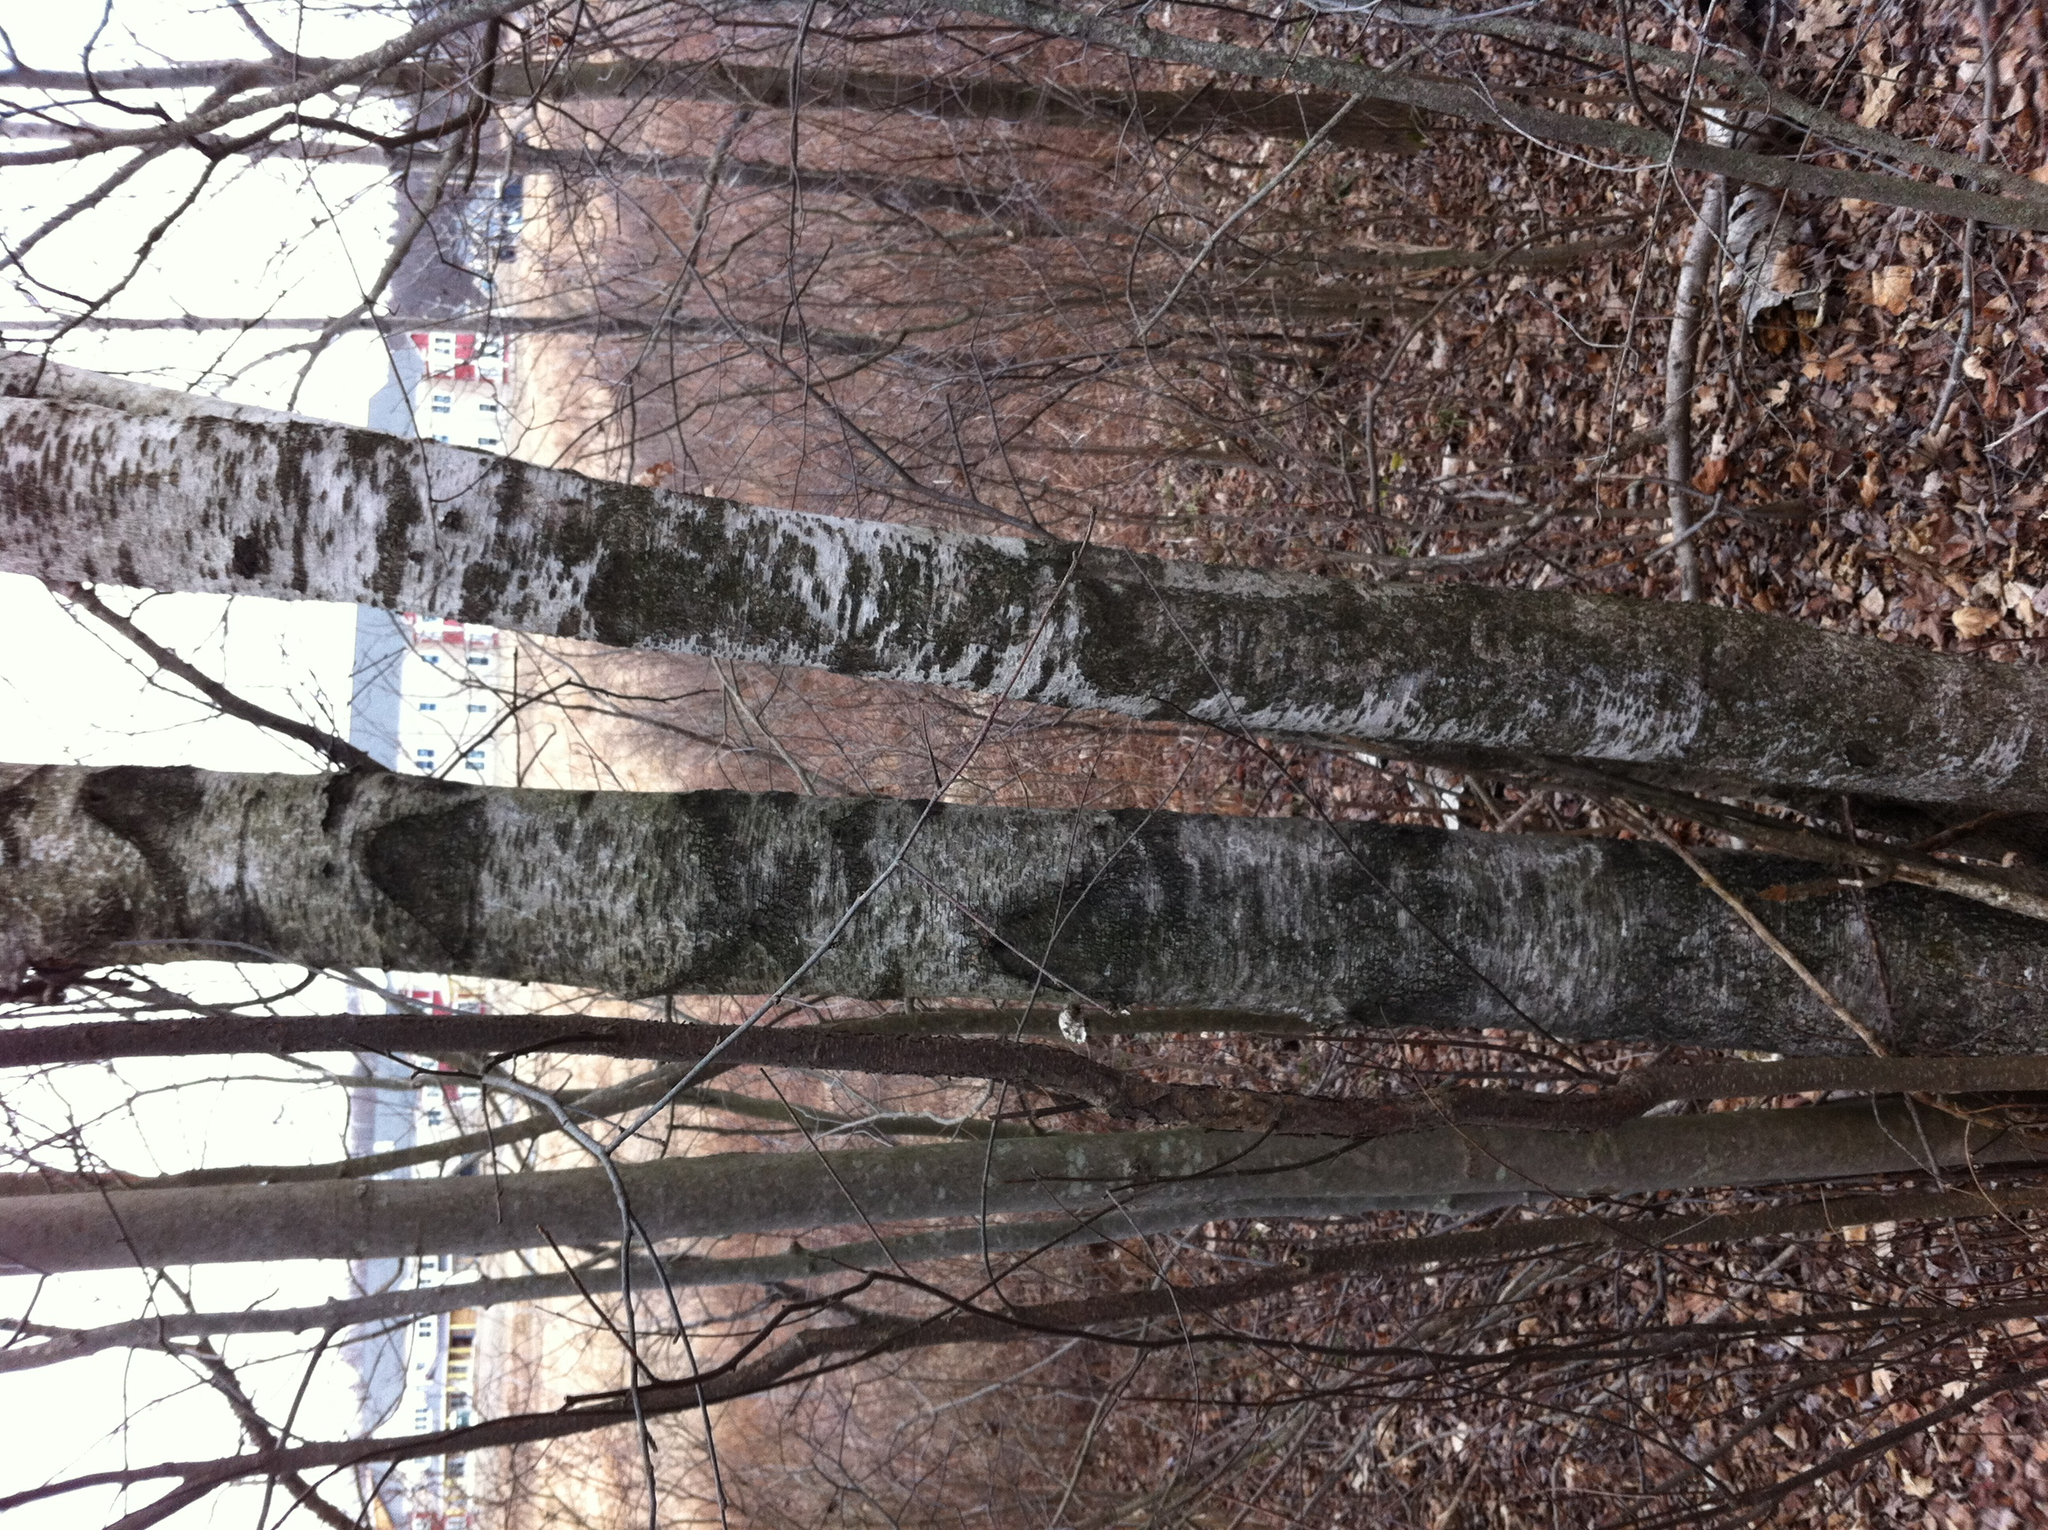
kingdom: Plantae
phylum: Tracheophyta
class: Magnoliopsida
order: Fagales
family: Betulaceae
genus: Betula
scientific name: Betula populifolia
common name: Fire birch
